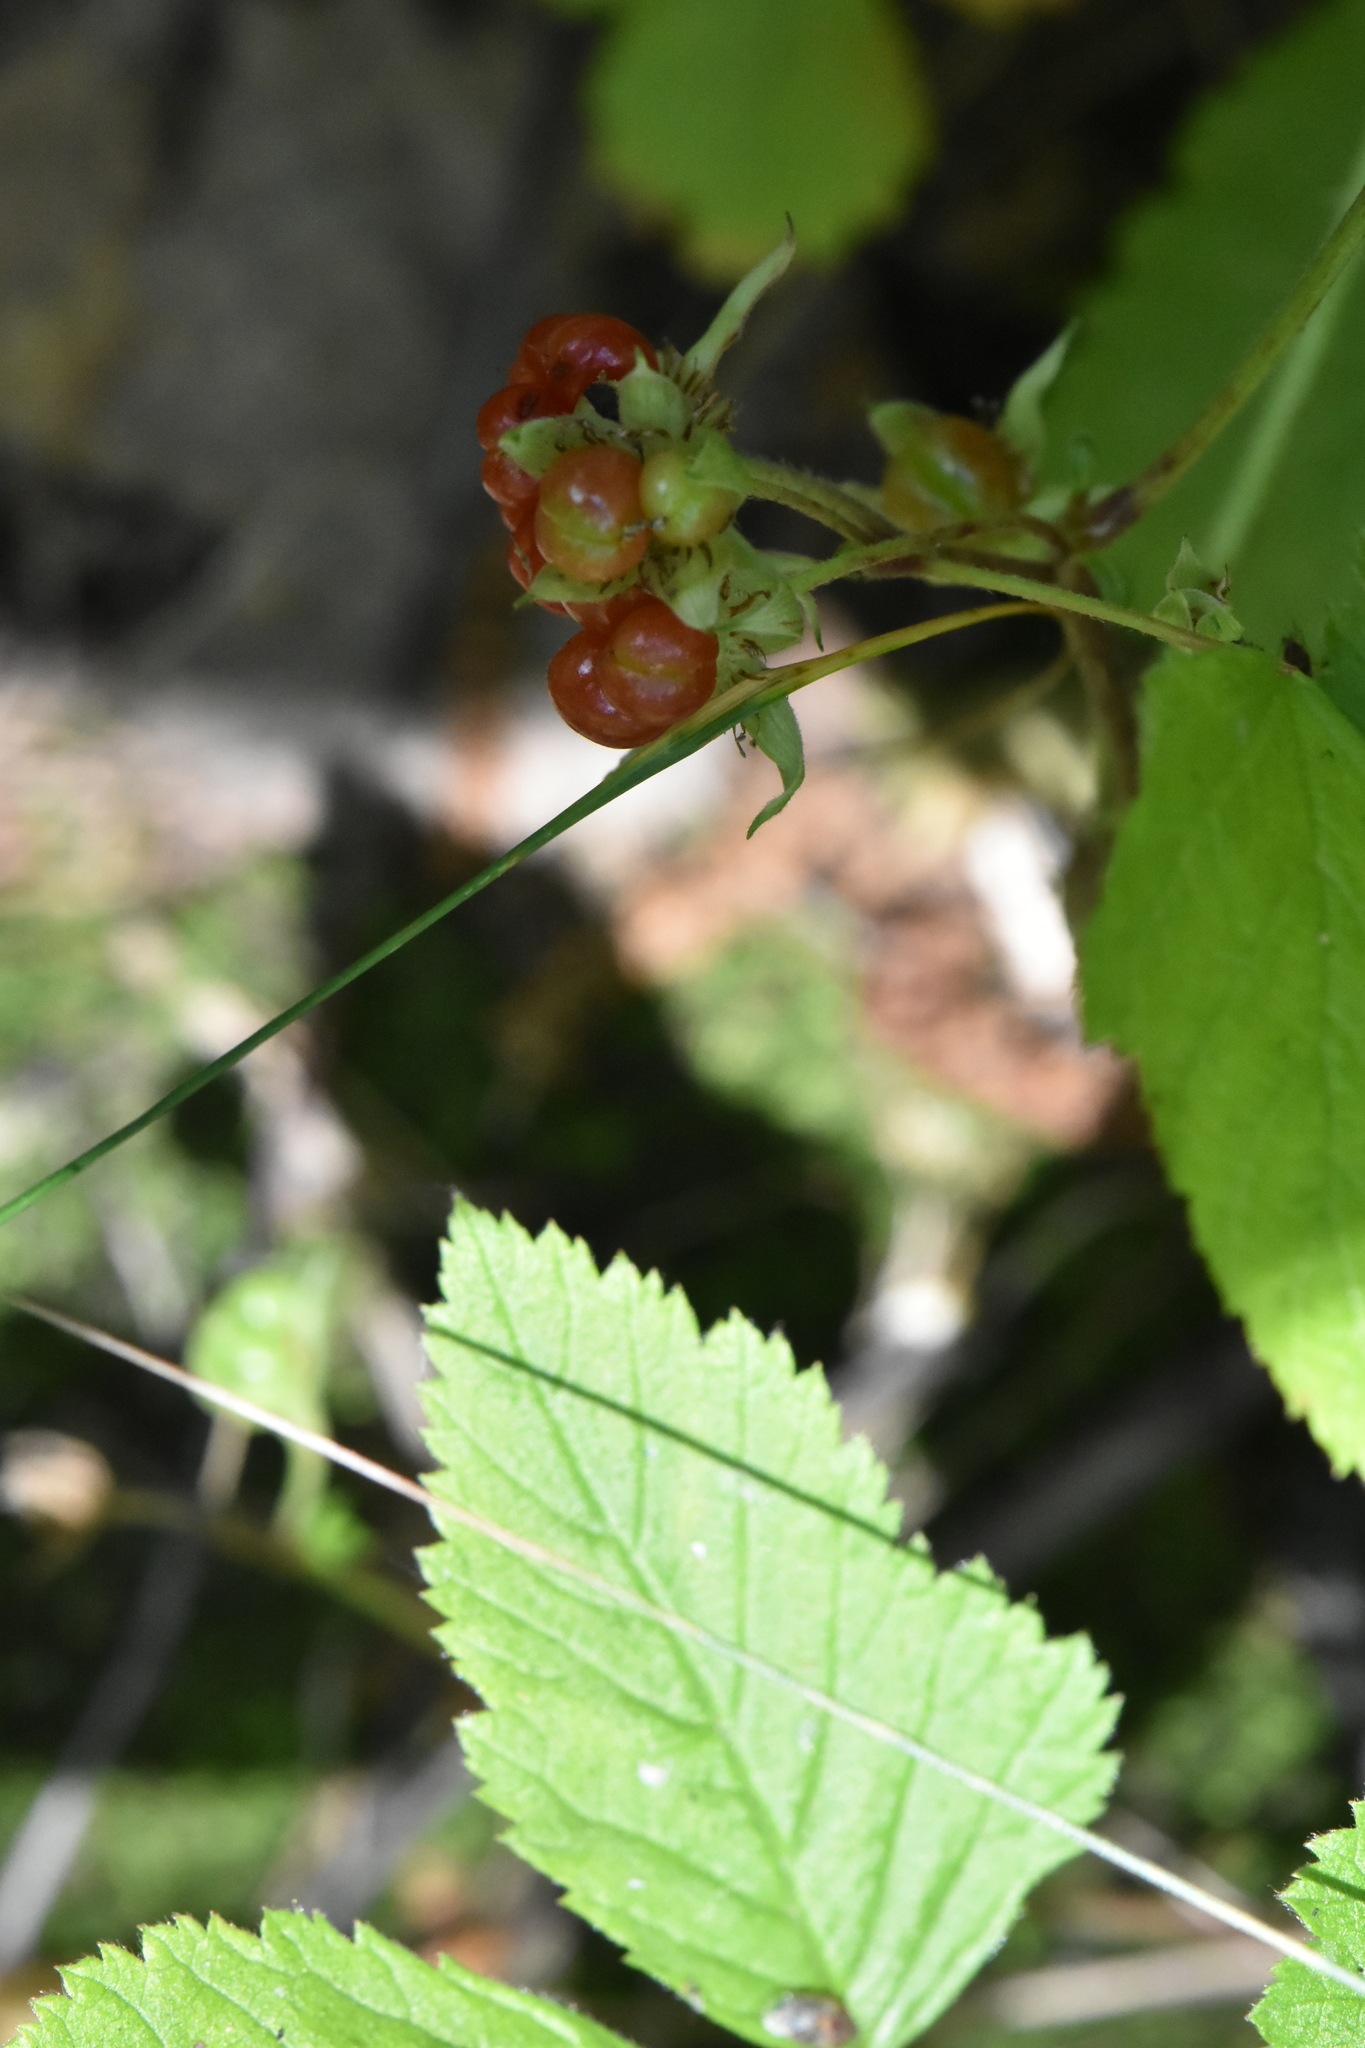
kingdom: Plantae
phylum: Tracheophyta
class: Magnoliopsida
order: Rosales
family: Rosaceae
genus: Rubus
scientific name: Rubus saxatilis
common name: Stone bramble
